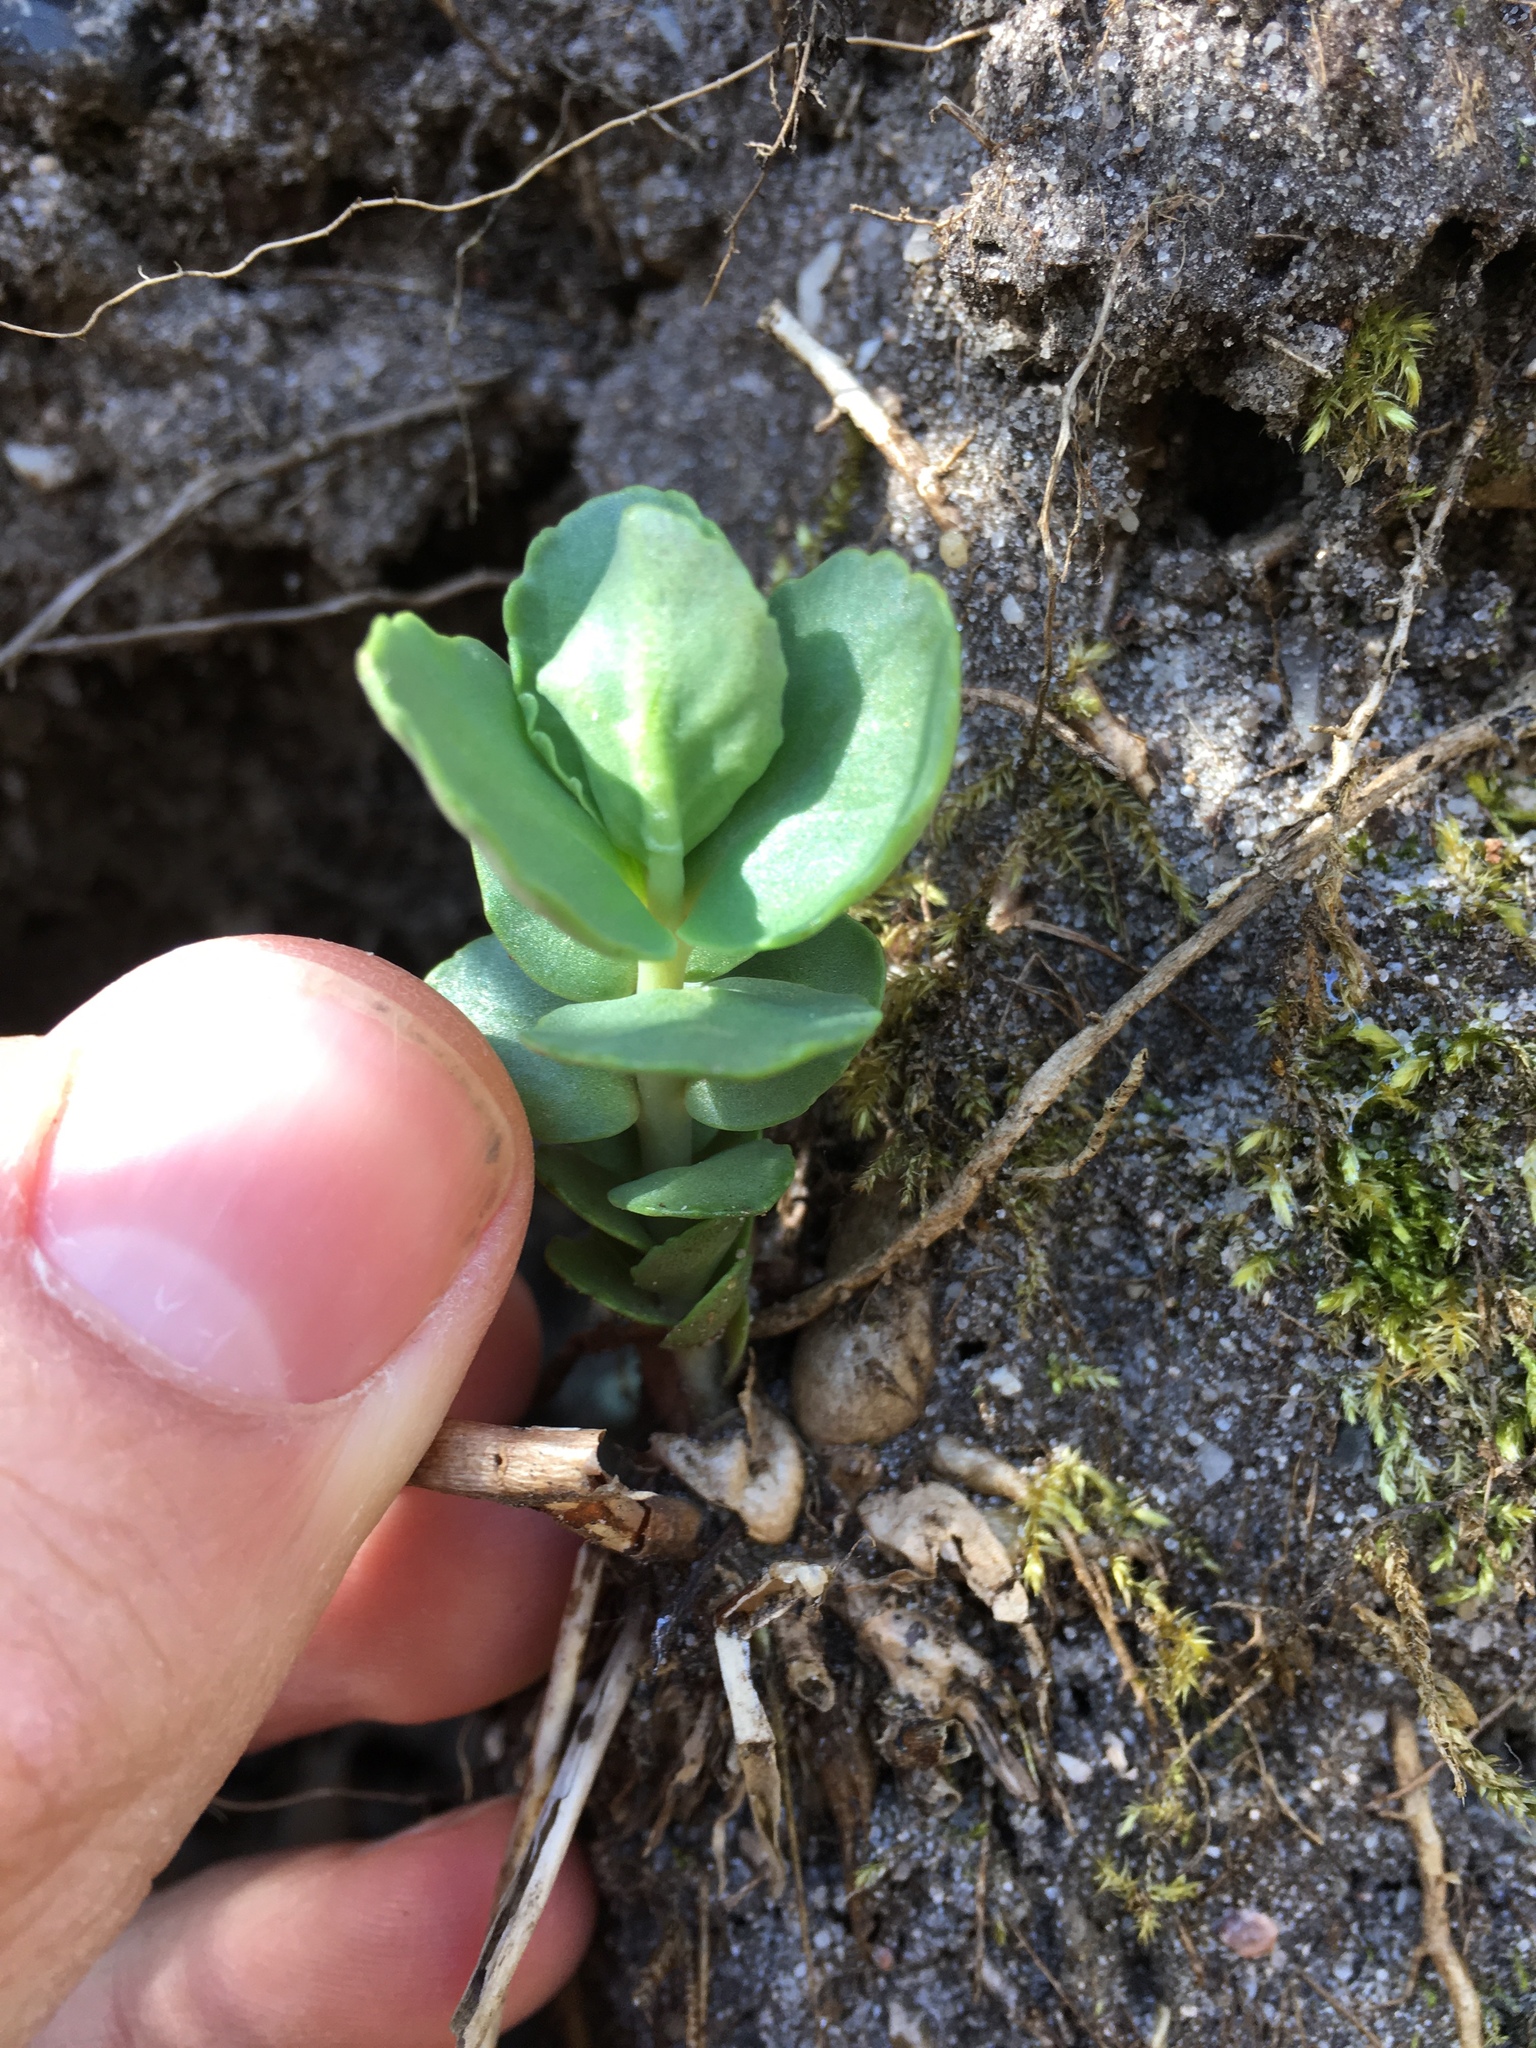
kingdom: Plantae
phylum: Tracheophyta
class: Magnoliopsida
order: Saxifragales
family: Crassulaceae
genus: Hylotelephium
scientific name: Hylotelephium maximum
